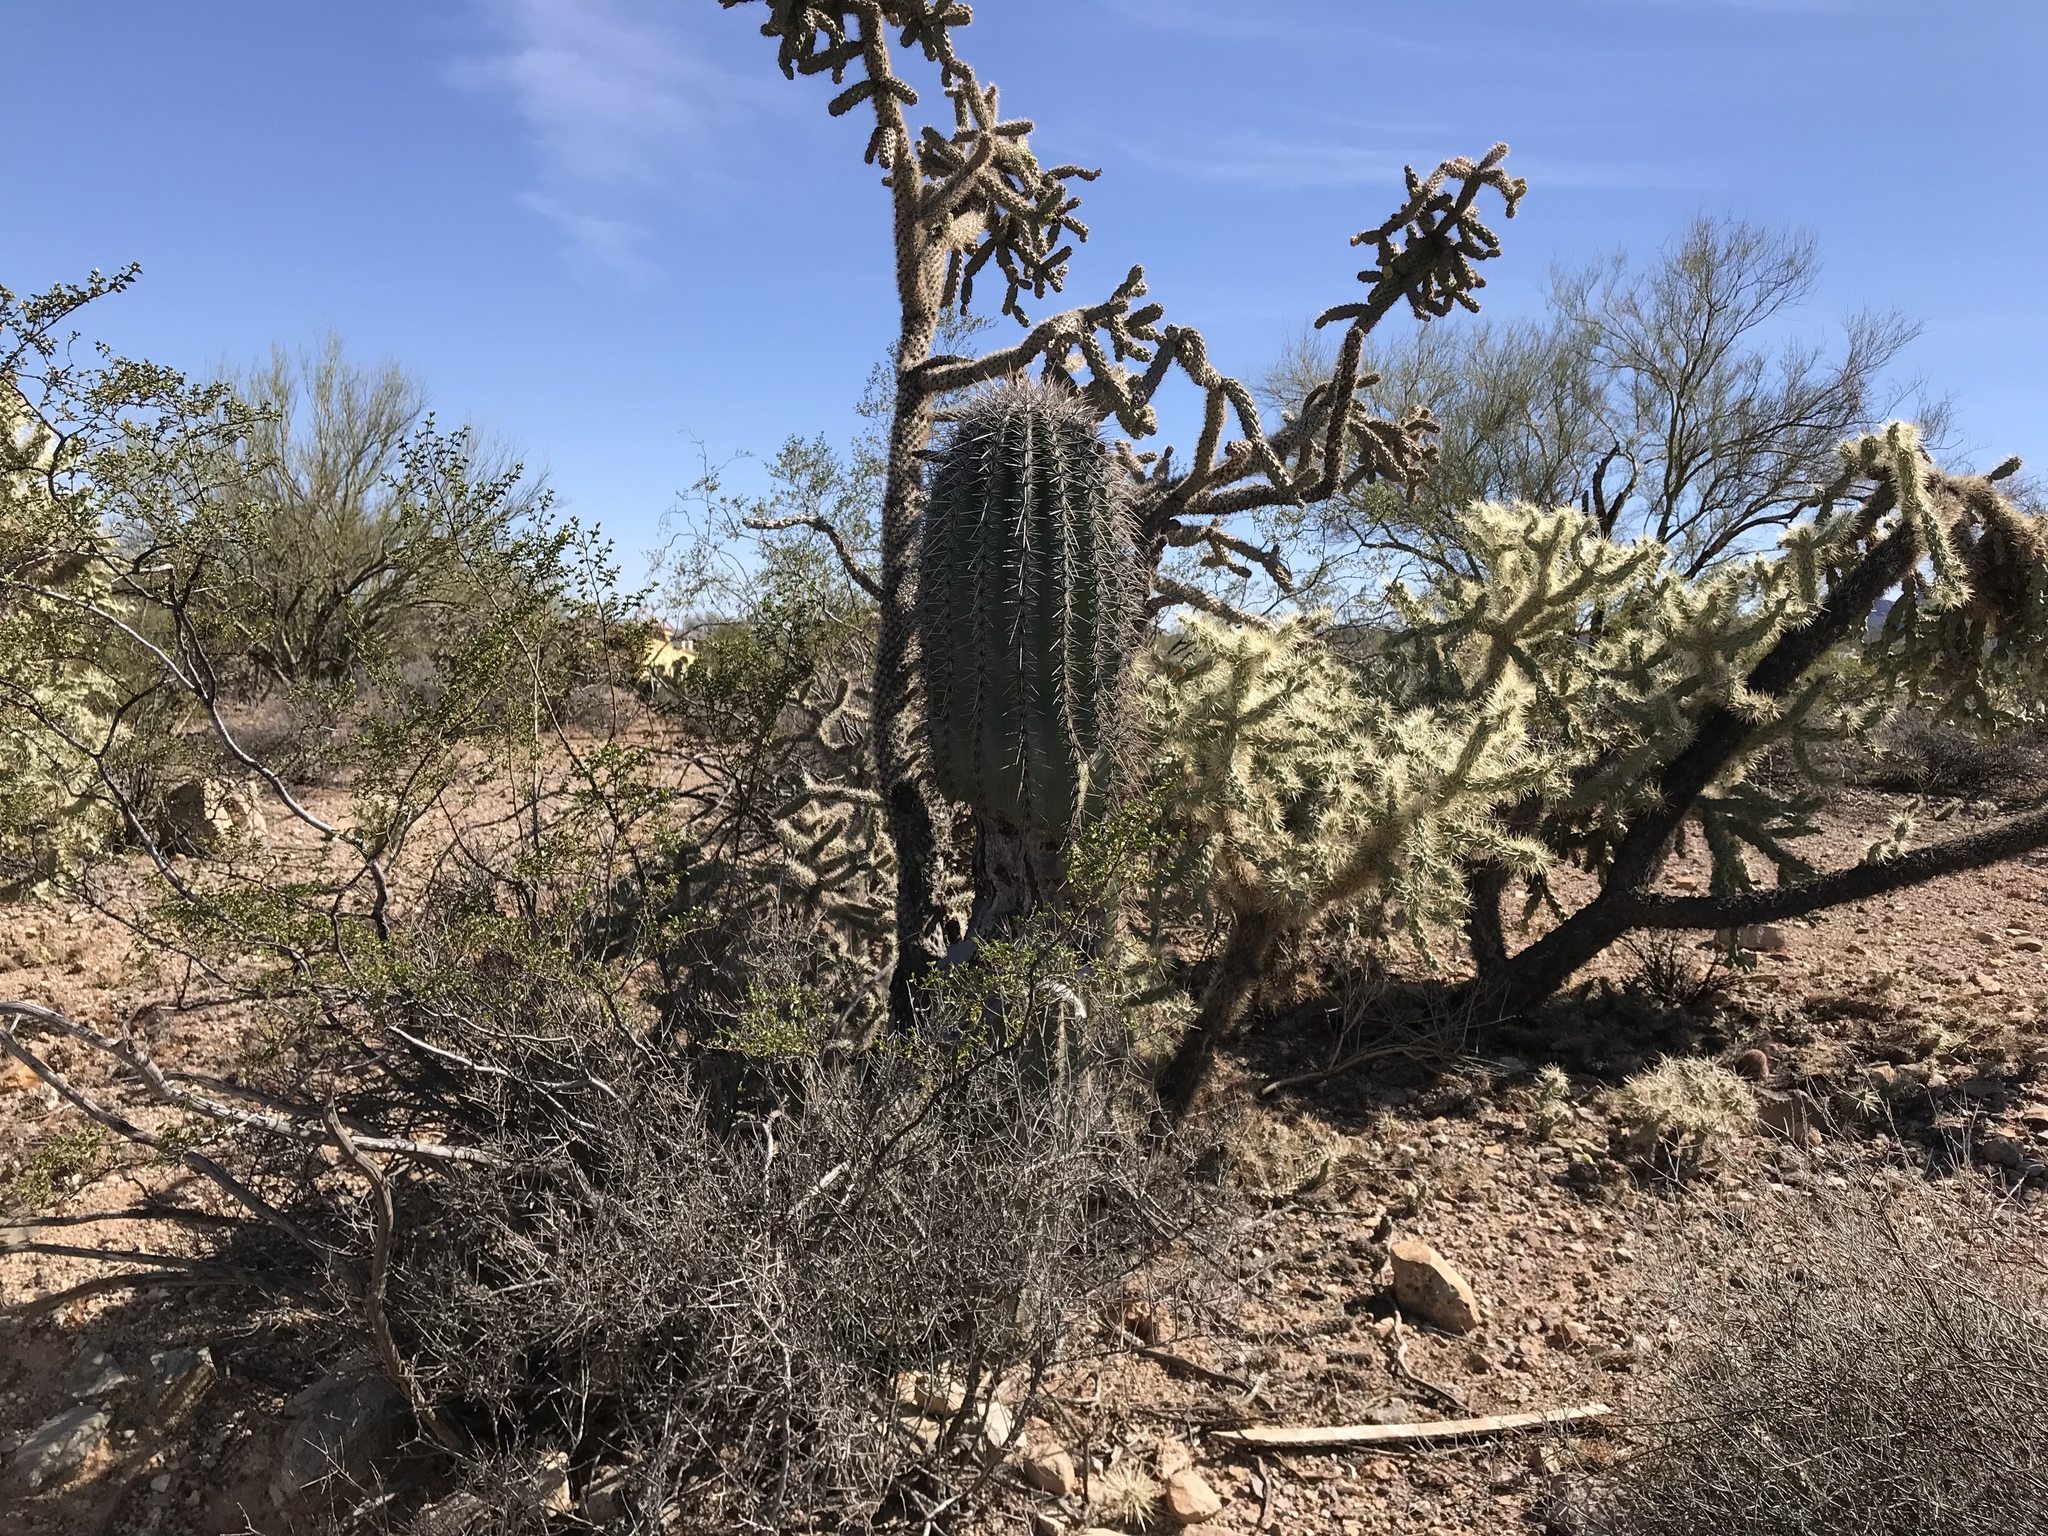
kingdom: Plantae
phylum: Tracheophyta
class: Magnoliopsida
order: Caryophyllales
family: Cactaceae
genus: Carnegiea
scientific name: Carnegiea gigantea
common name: Saguaro
